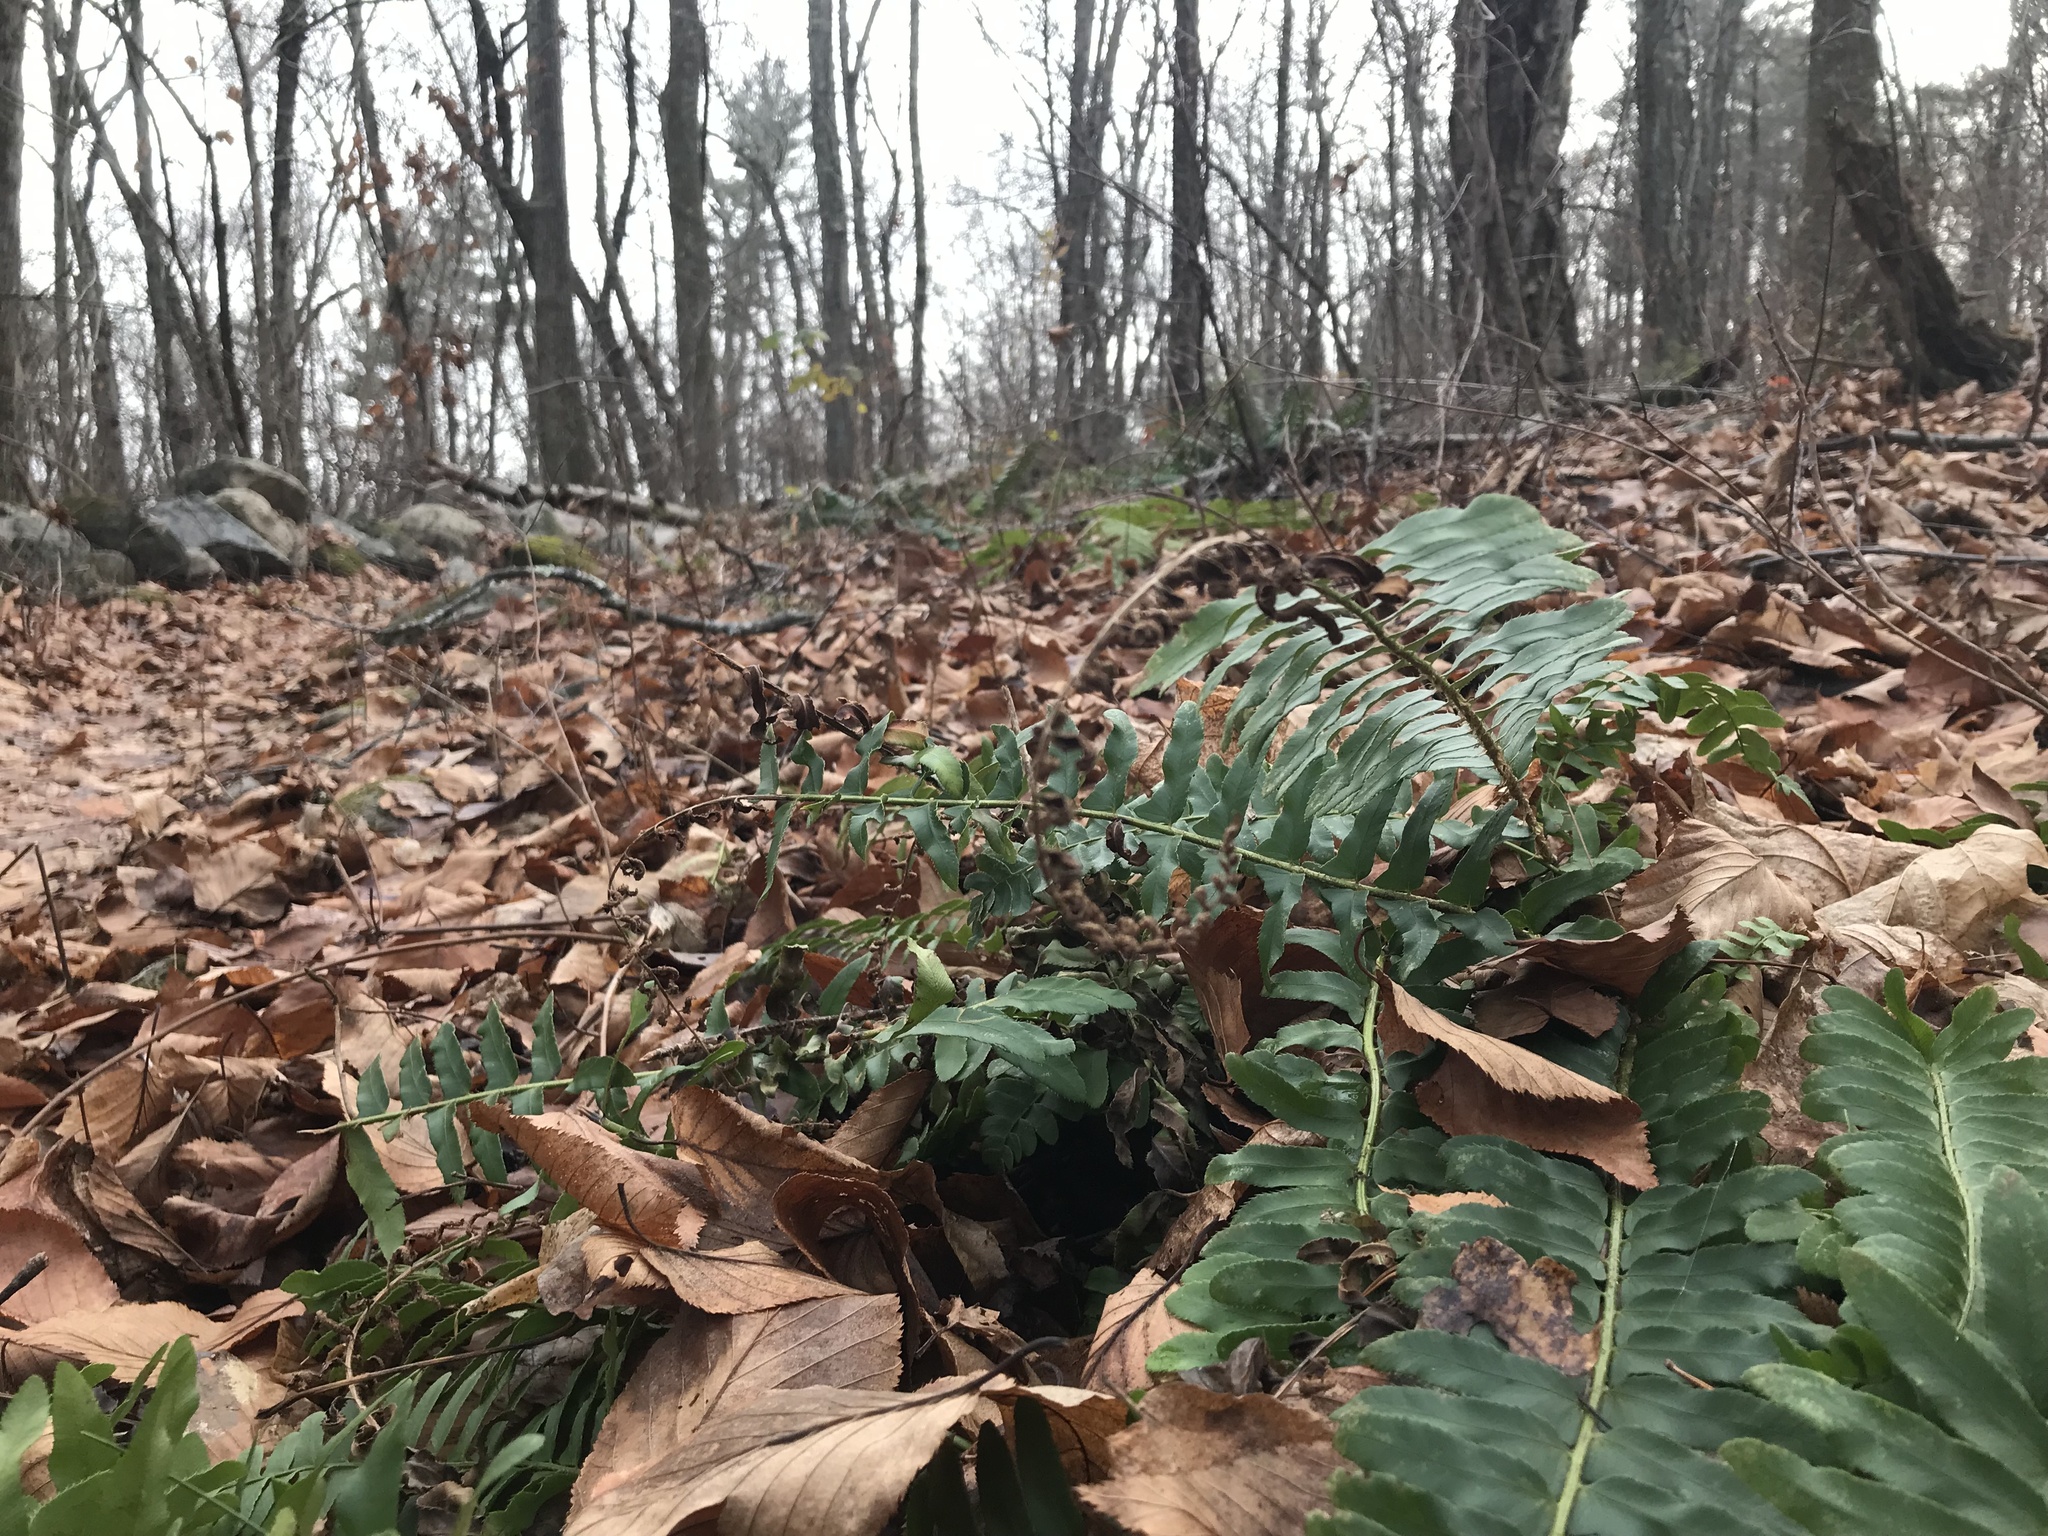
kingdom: Plantae
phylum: Tracheophyta
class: Polypodiopsida
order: Polypodiales
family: Dryopteridaceae
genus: Polystichum
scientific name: Polystichum acrostichoides
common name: Christmas fern
